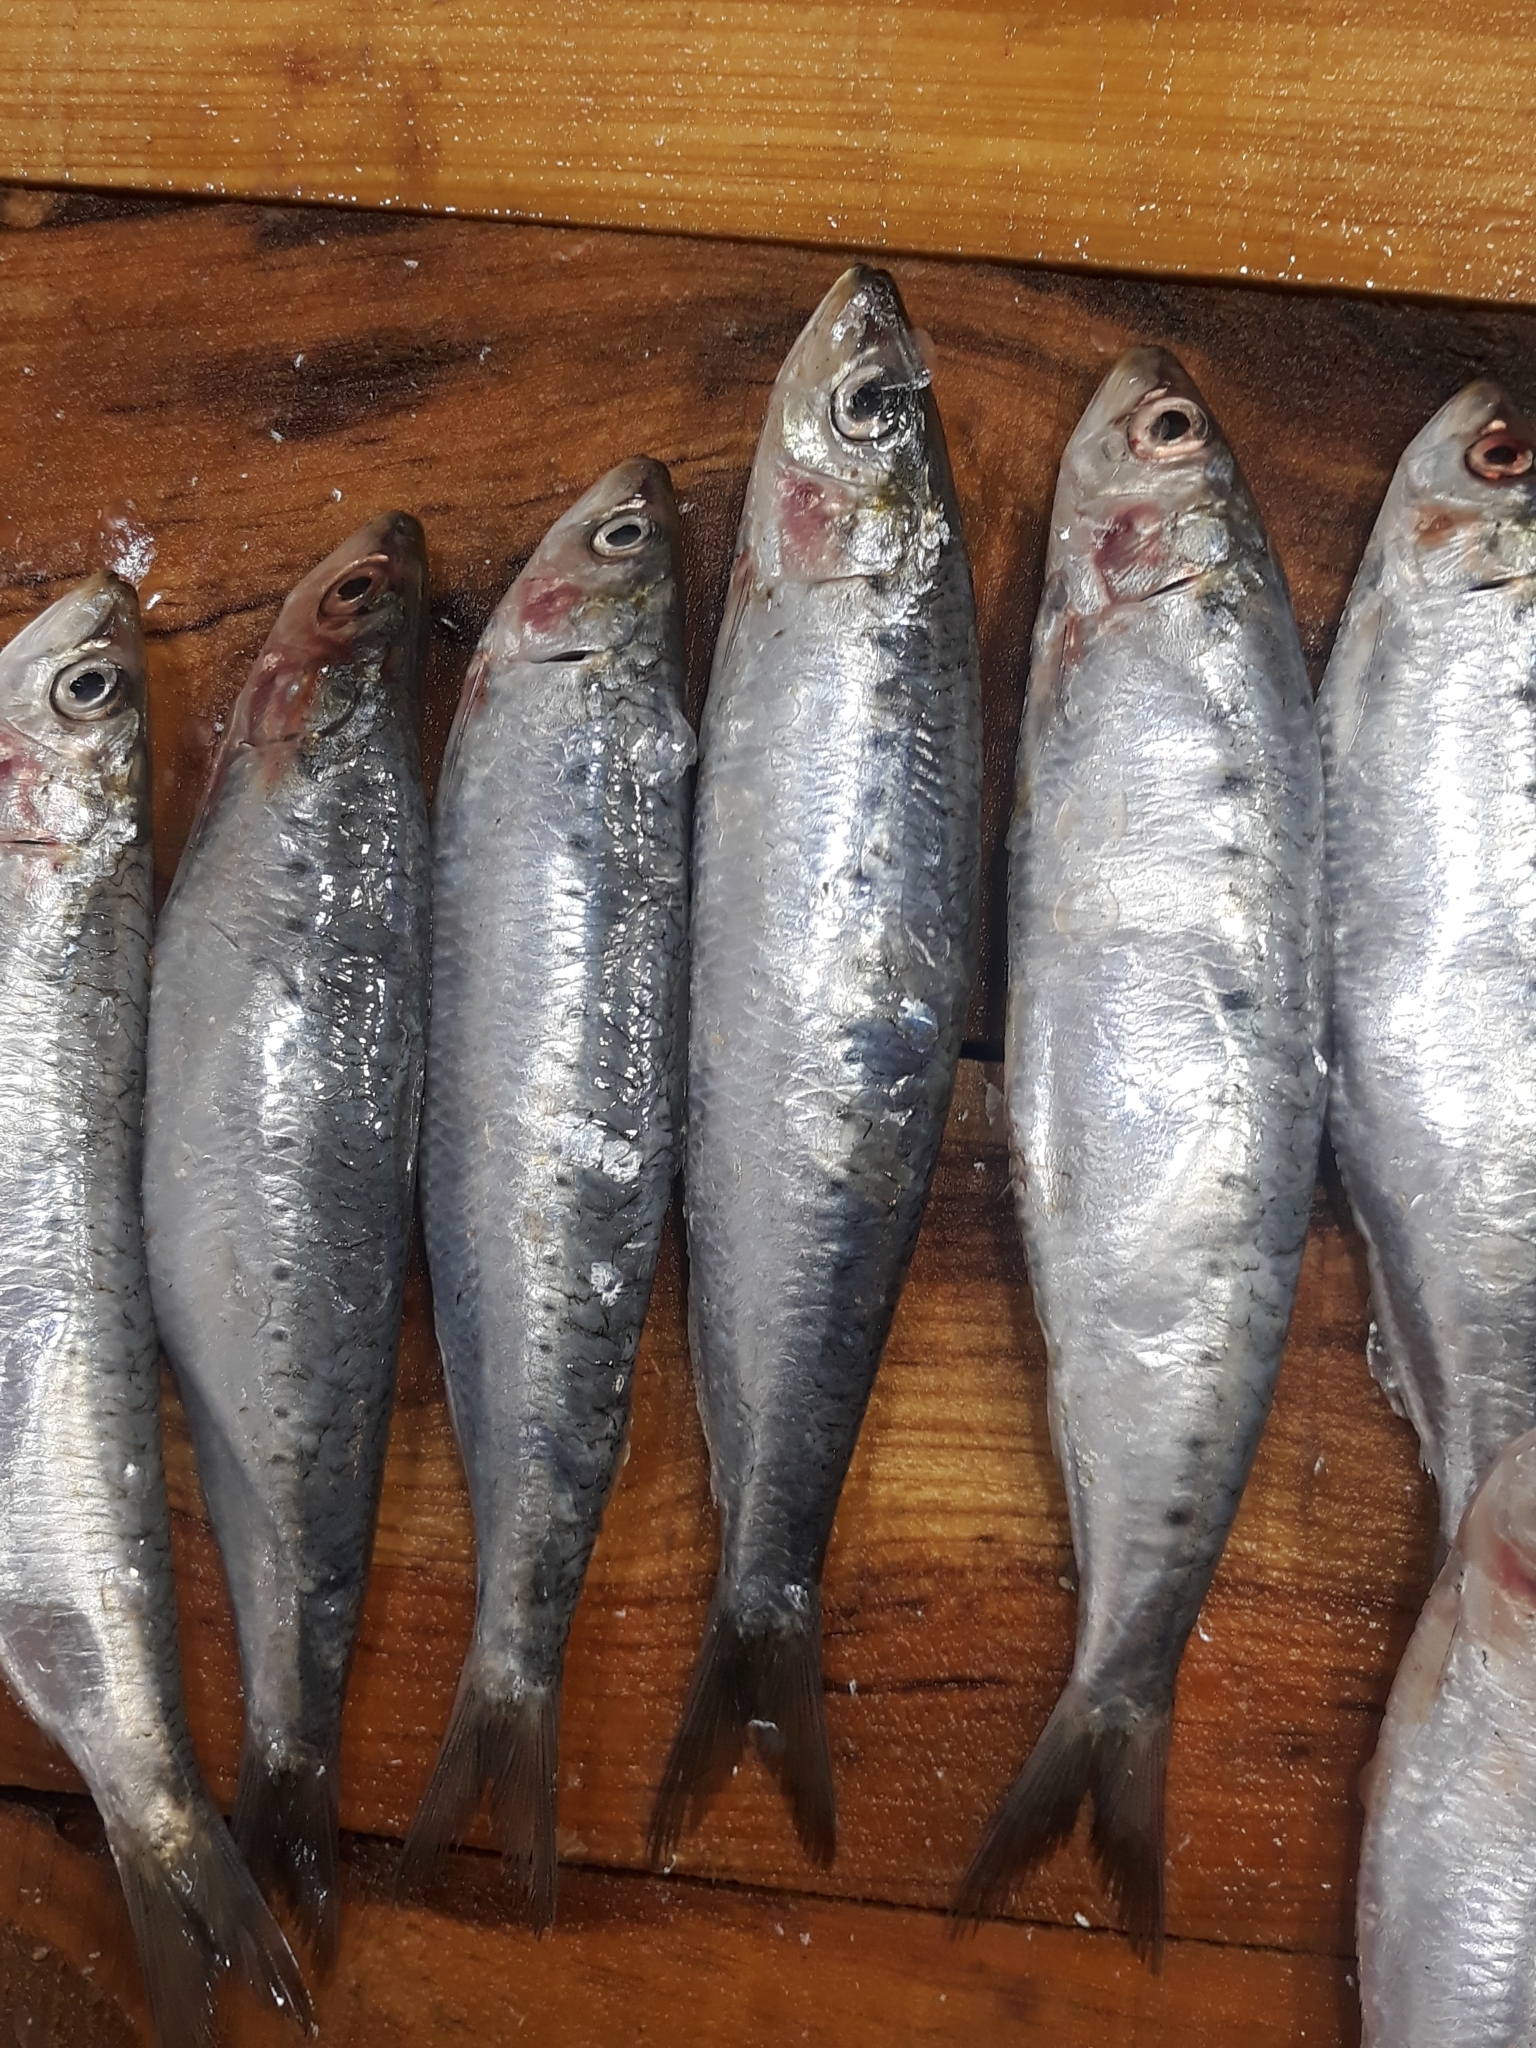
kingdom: Animalia
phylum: Chordata
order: Clupeiformes
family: Clupeidae
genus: Sardina
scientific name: Sardina pilchardus
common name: Pilchard
